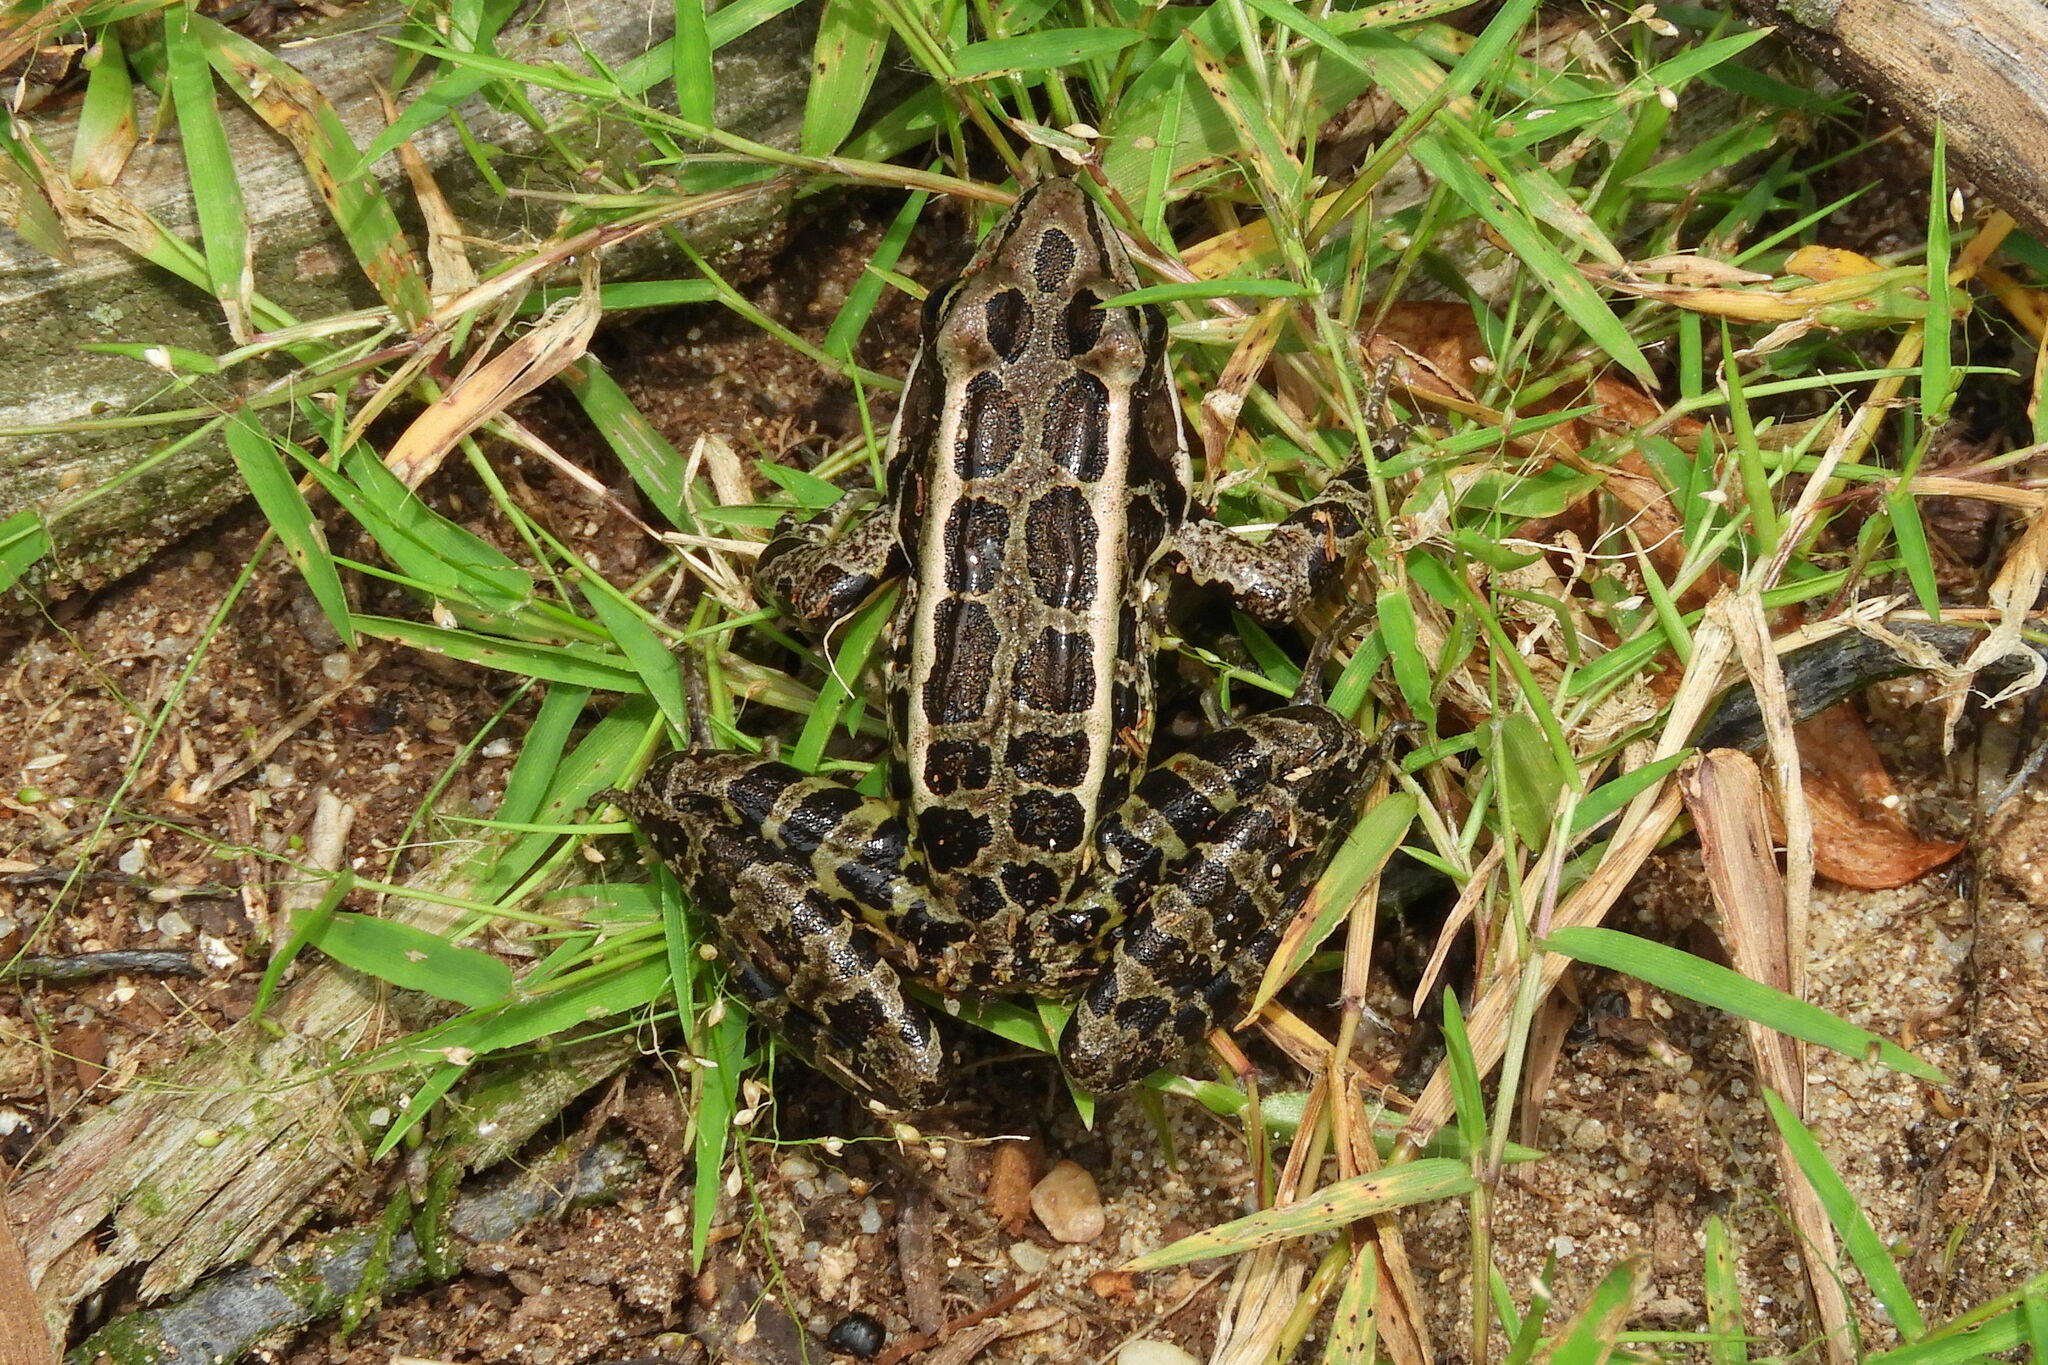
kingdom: Animalia
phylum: Chordata
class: Amphibia
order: Anura
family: Ranidae
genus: Lithobates
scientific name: Lithobates palustris
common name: Pickerel frog
